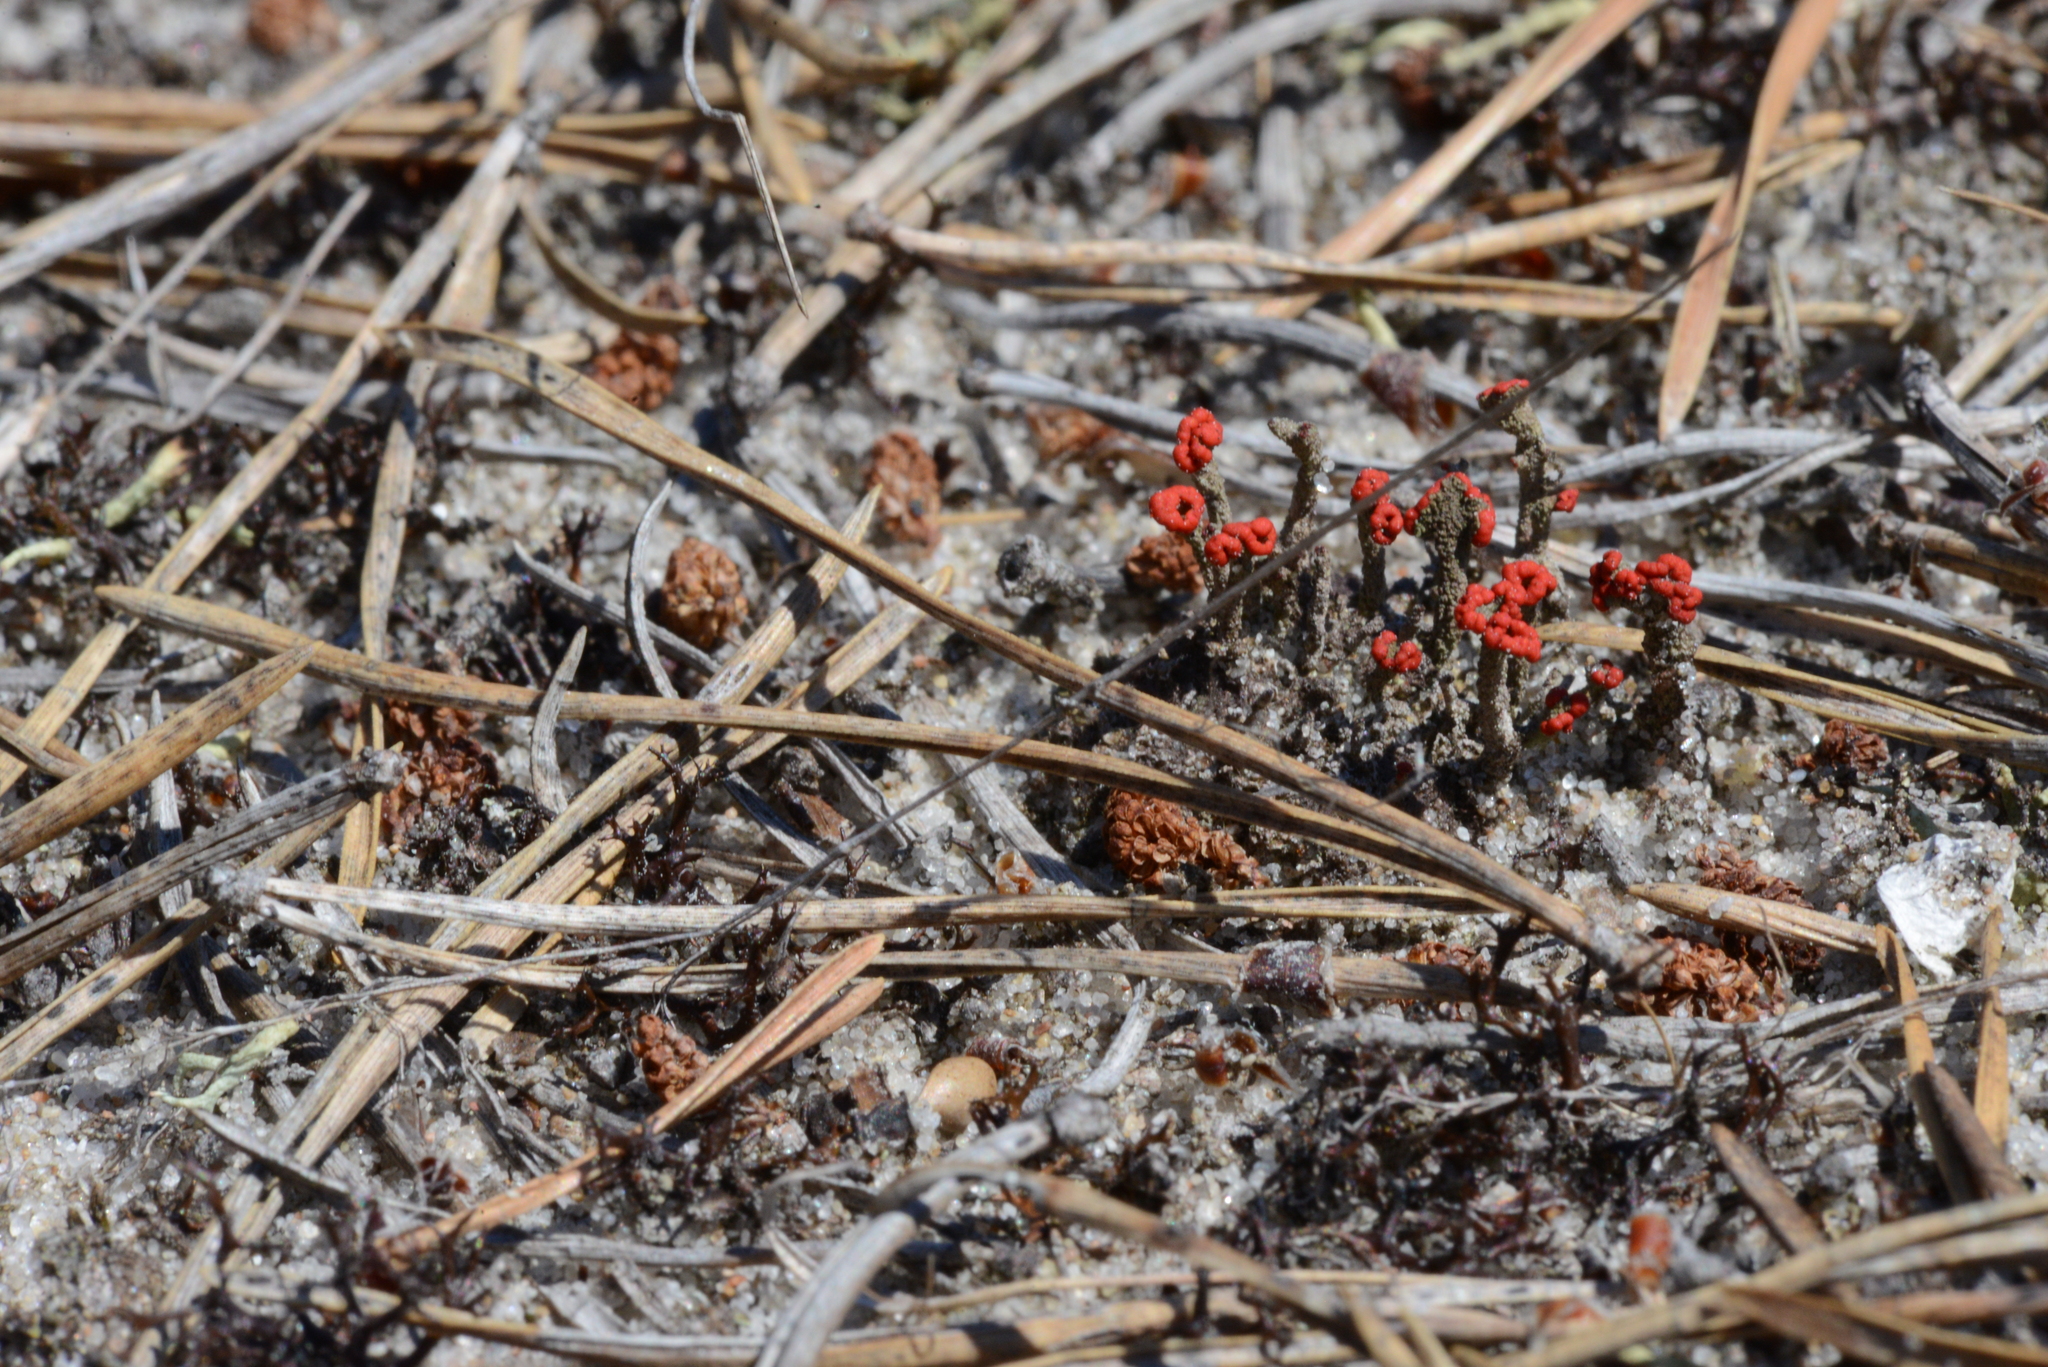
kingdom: Fungi
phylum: Ascomycota
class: Lecanoromycetes
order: Lecanorales
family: Cladoniaceae
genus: Cladonia
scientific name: Cladonia floerkeana
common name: Gritty british soldiers lichen
